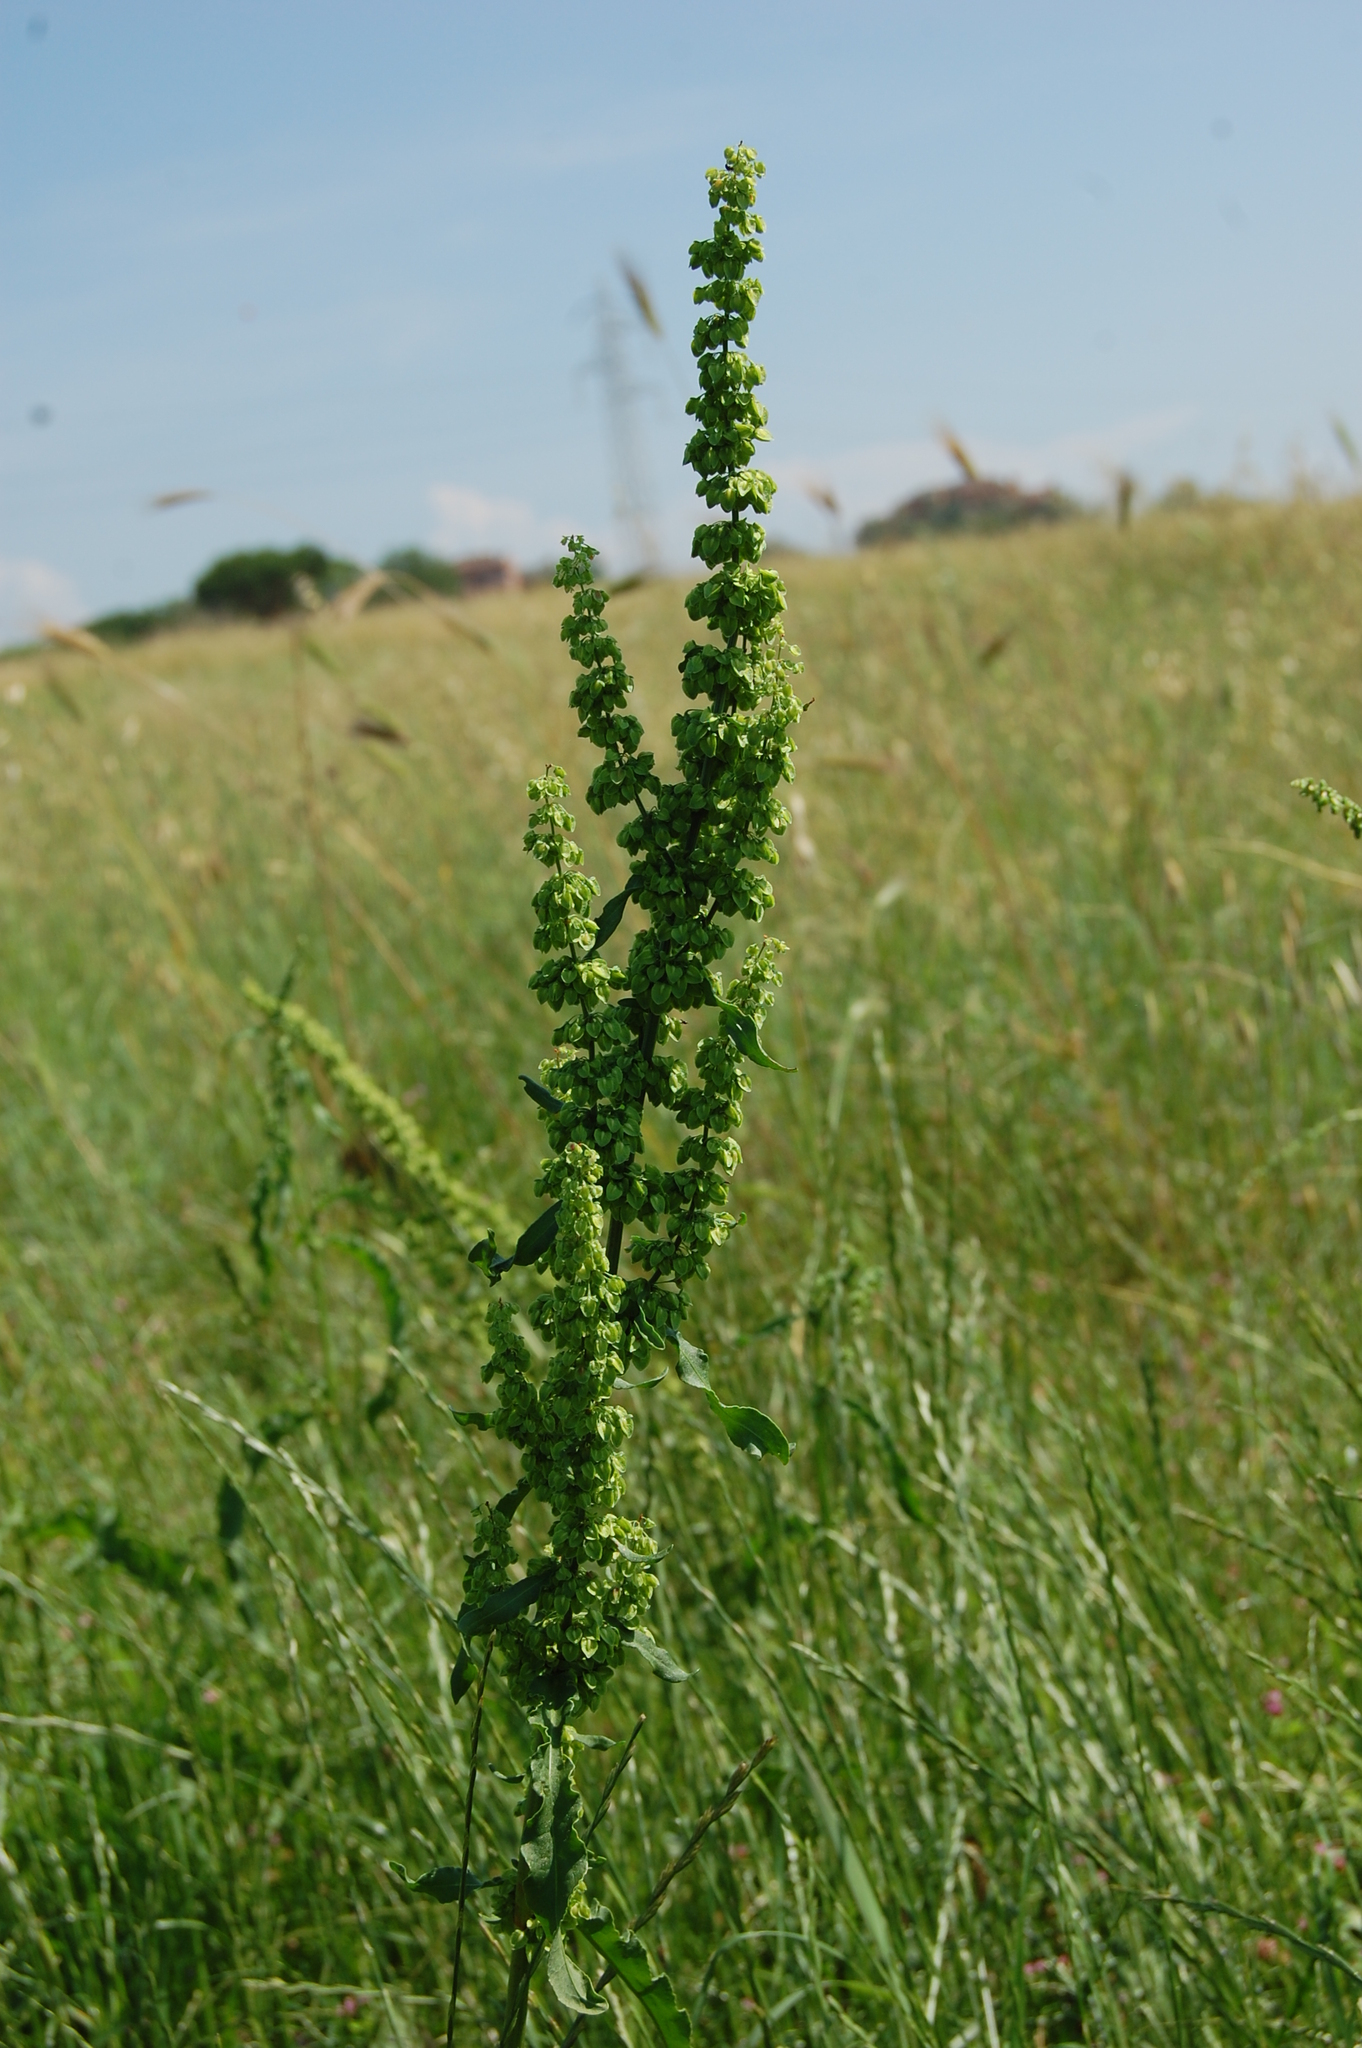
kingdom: Plantae
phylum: Tracheophyta
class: Magnoliopsida
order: Caryophyllales
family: Polygonaceae
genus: Rumex
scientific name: Rumex crispus
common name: Curled dock
